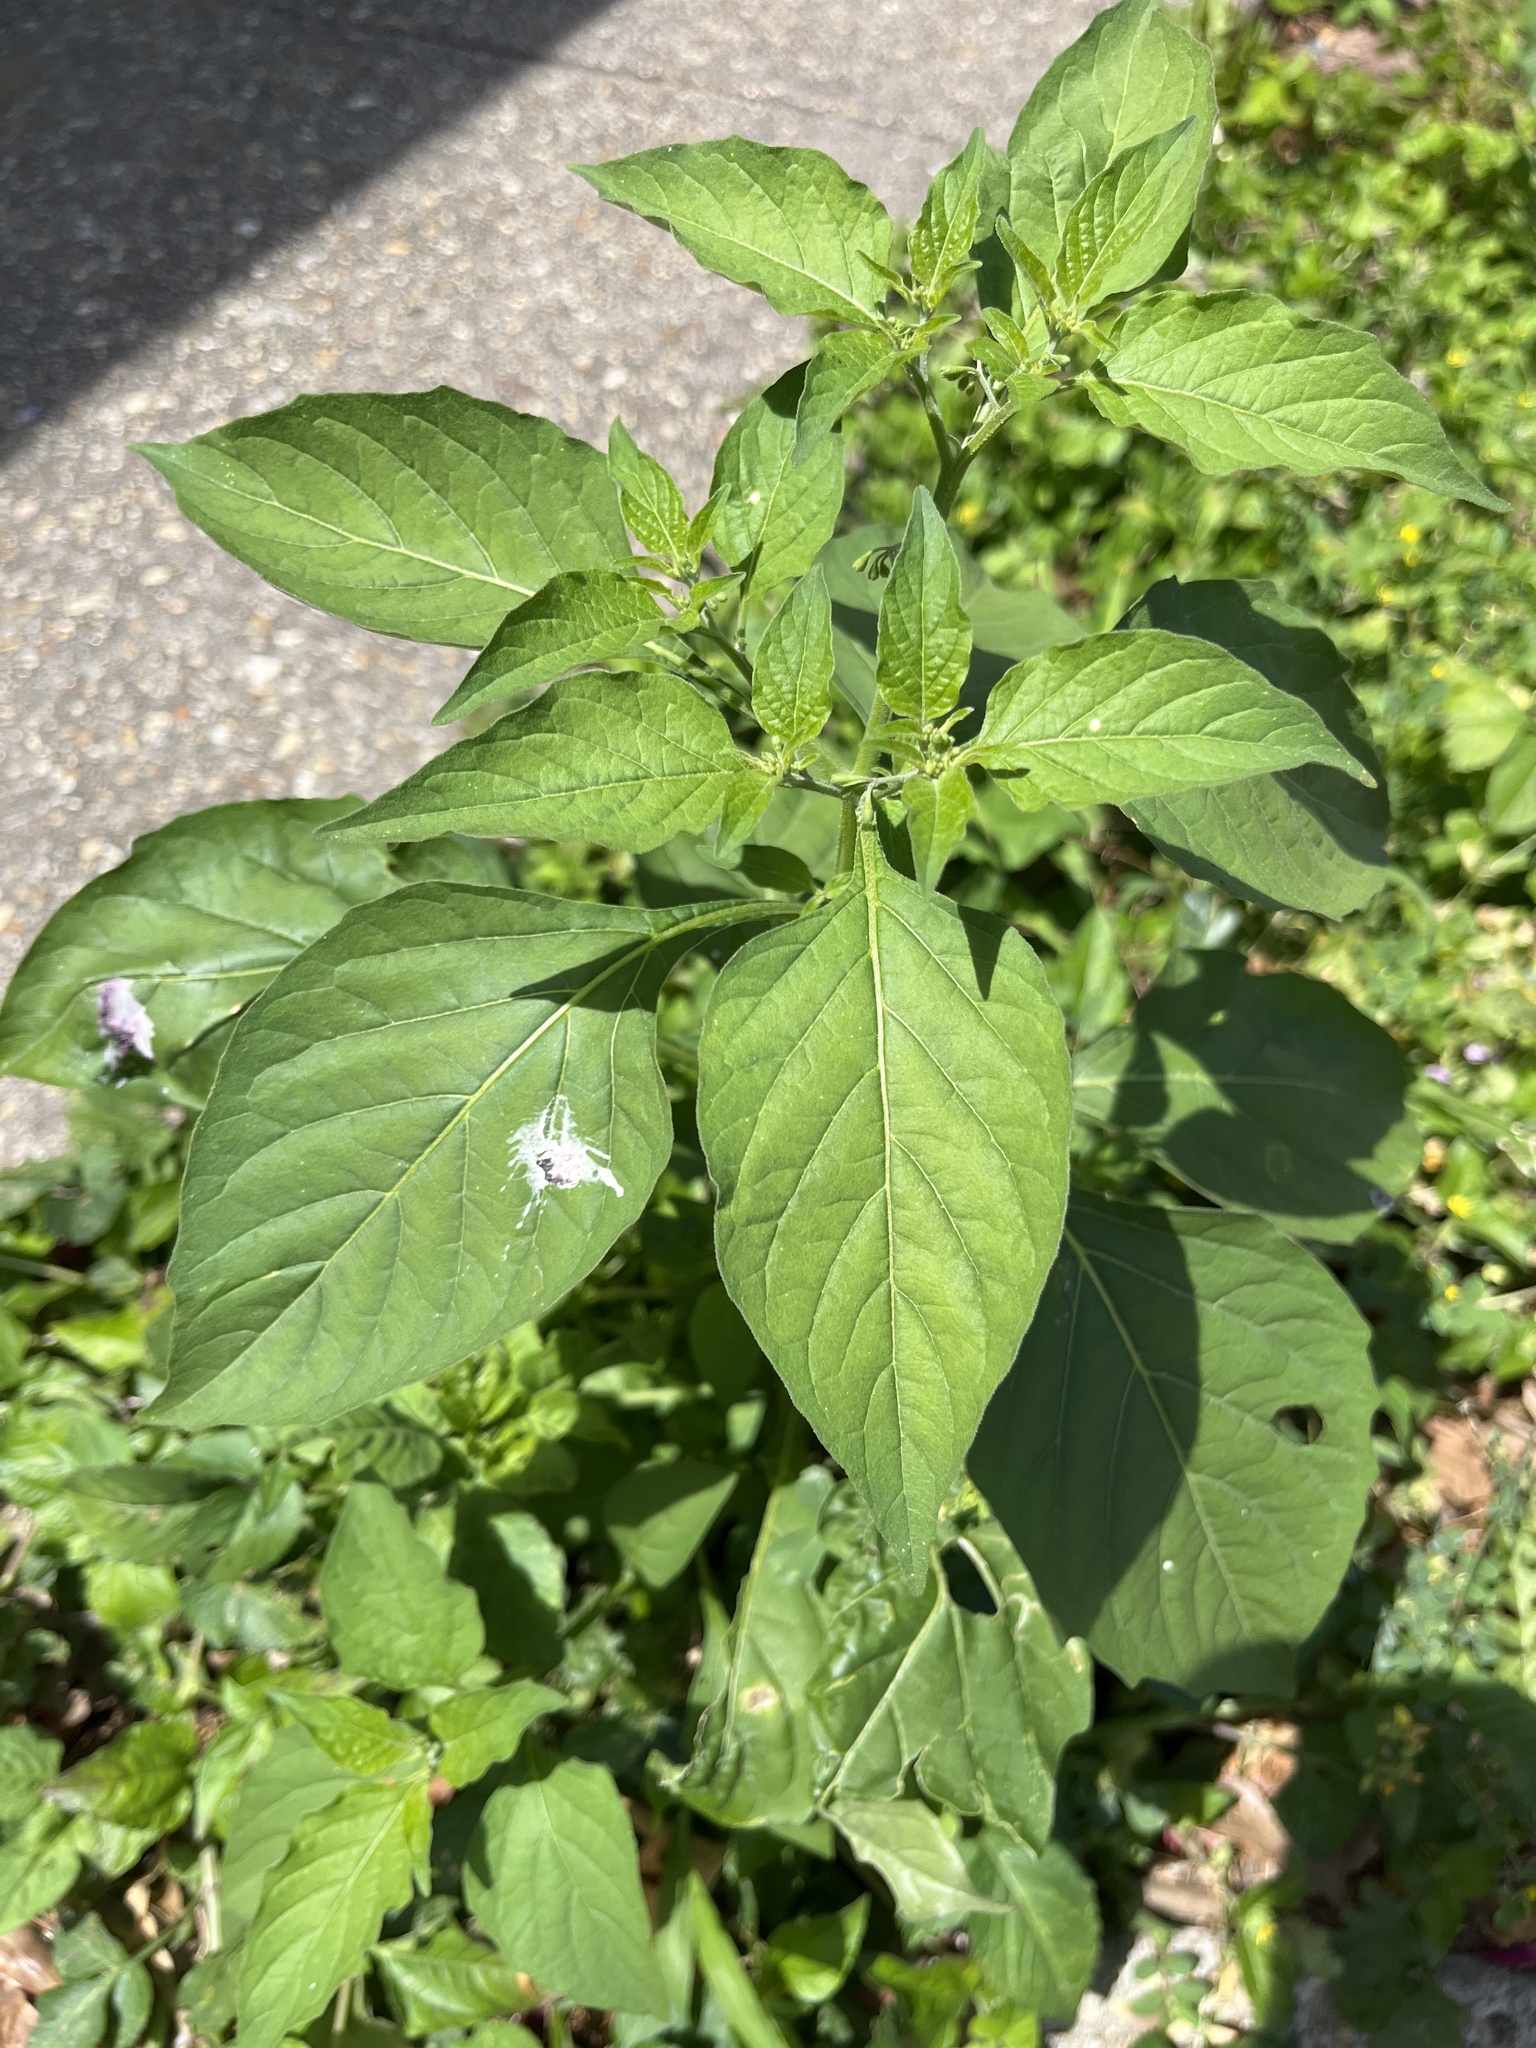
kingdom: Plantae
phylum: Tracheophyta
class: Magnoliopsida
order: Solanales
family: Solanaceae
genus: Solanum
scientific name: Solanum
